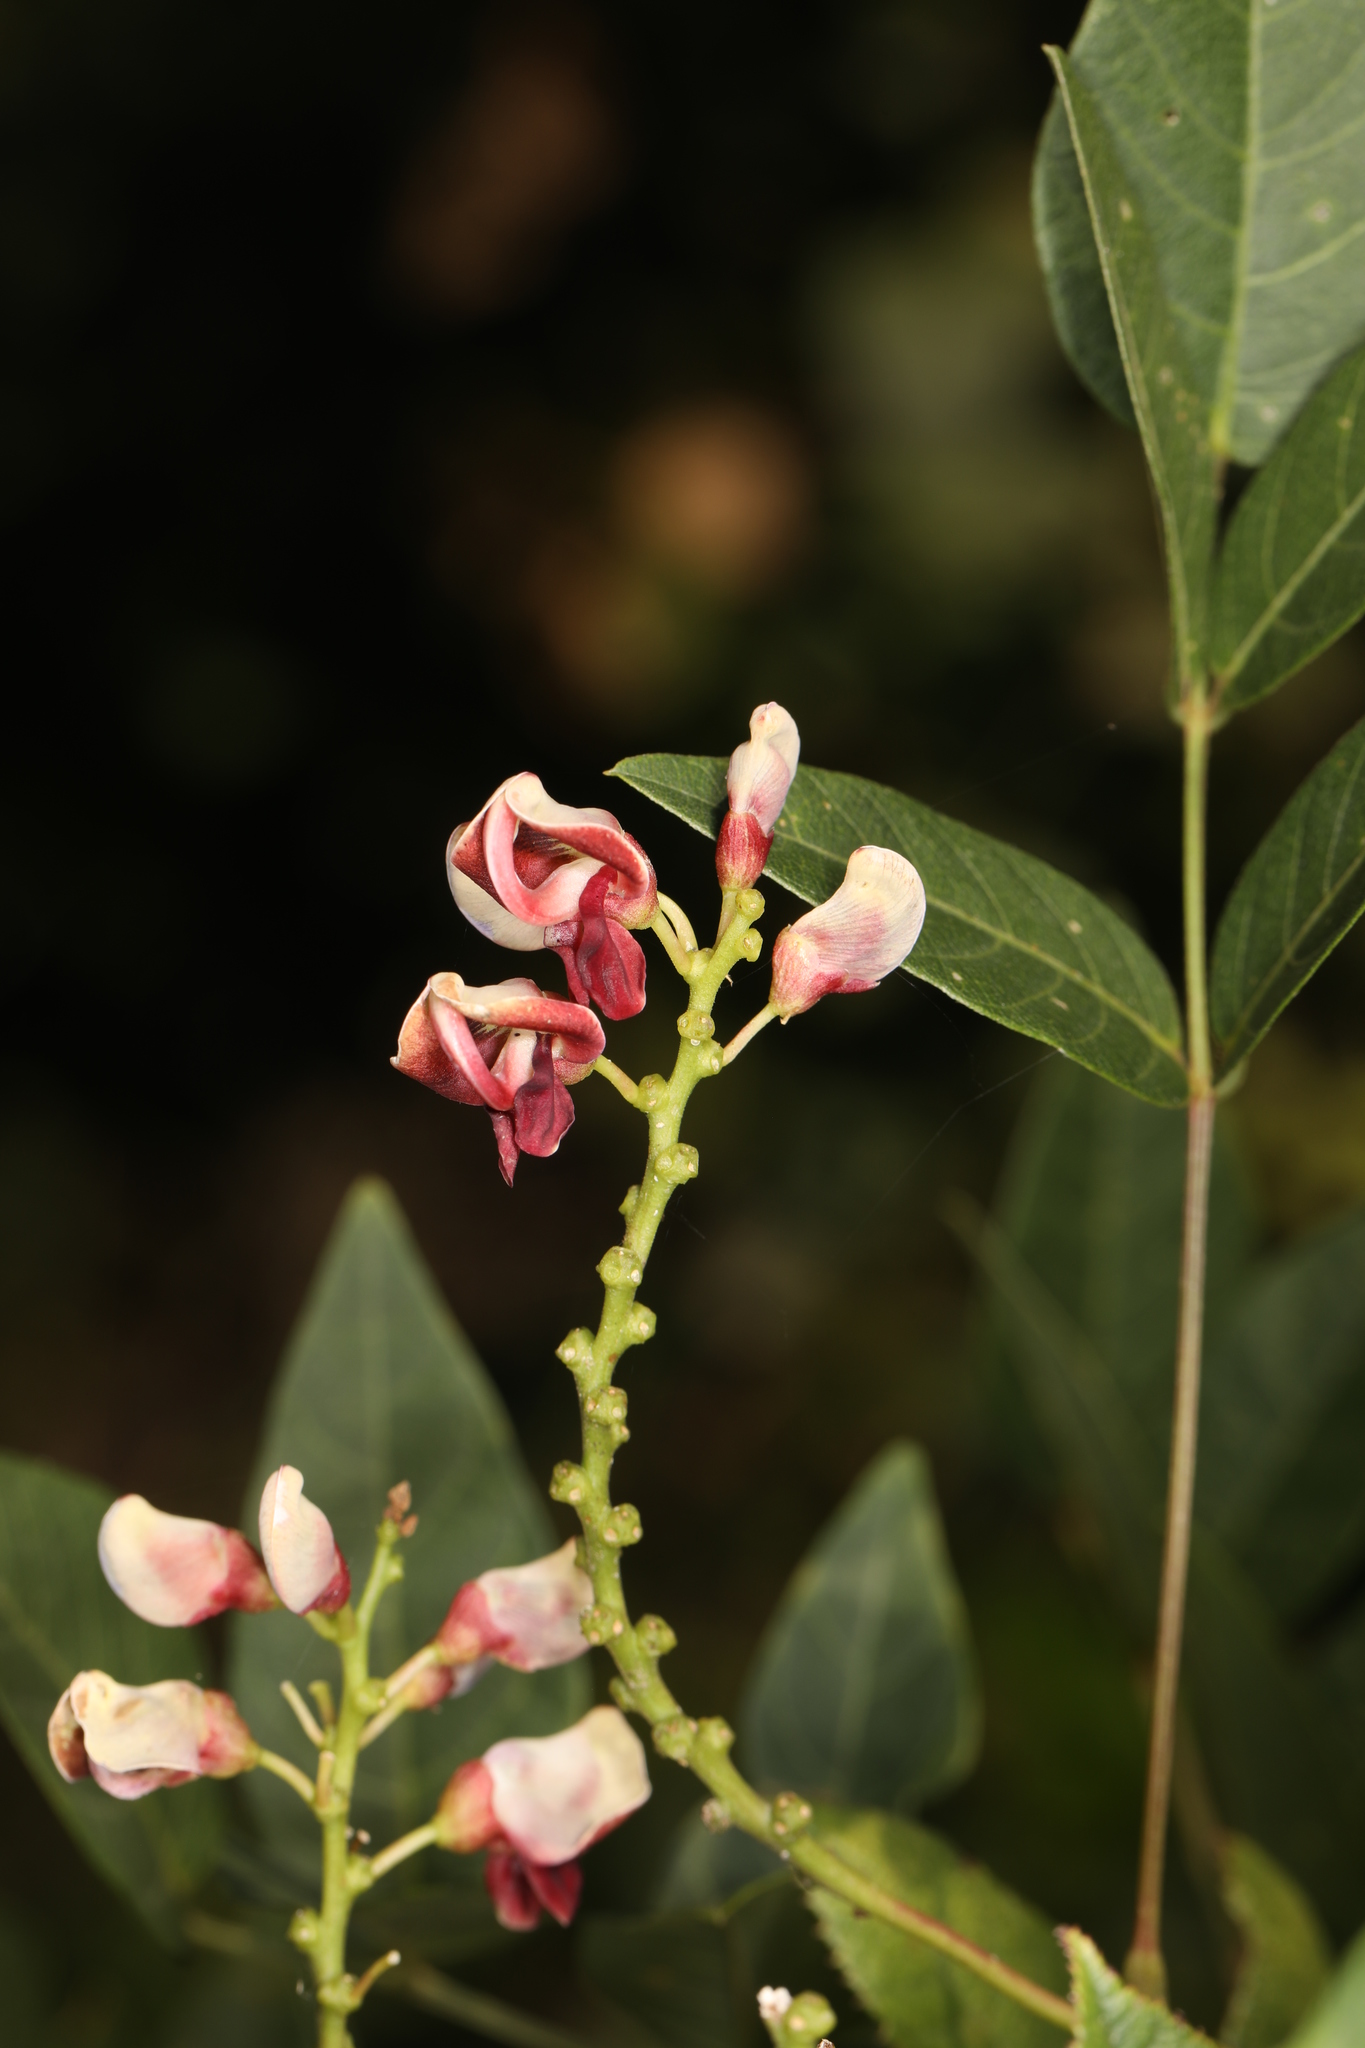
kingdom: Plantae
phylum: Tracheophyta
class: Magnoliopsida
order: Fabales
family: Fabaceae
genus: Apios
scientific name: Apios americana
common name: American potato-bean
